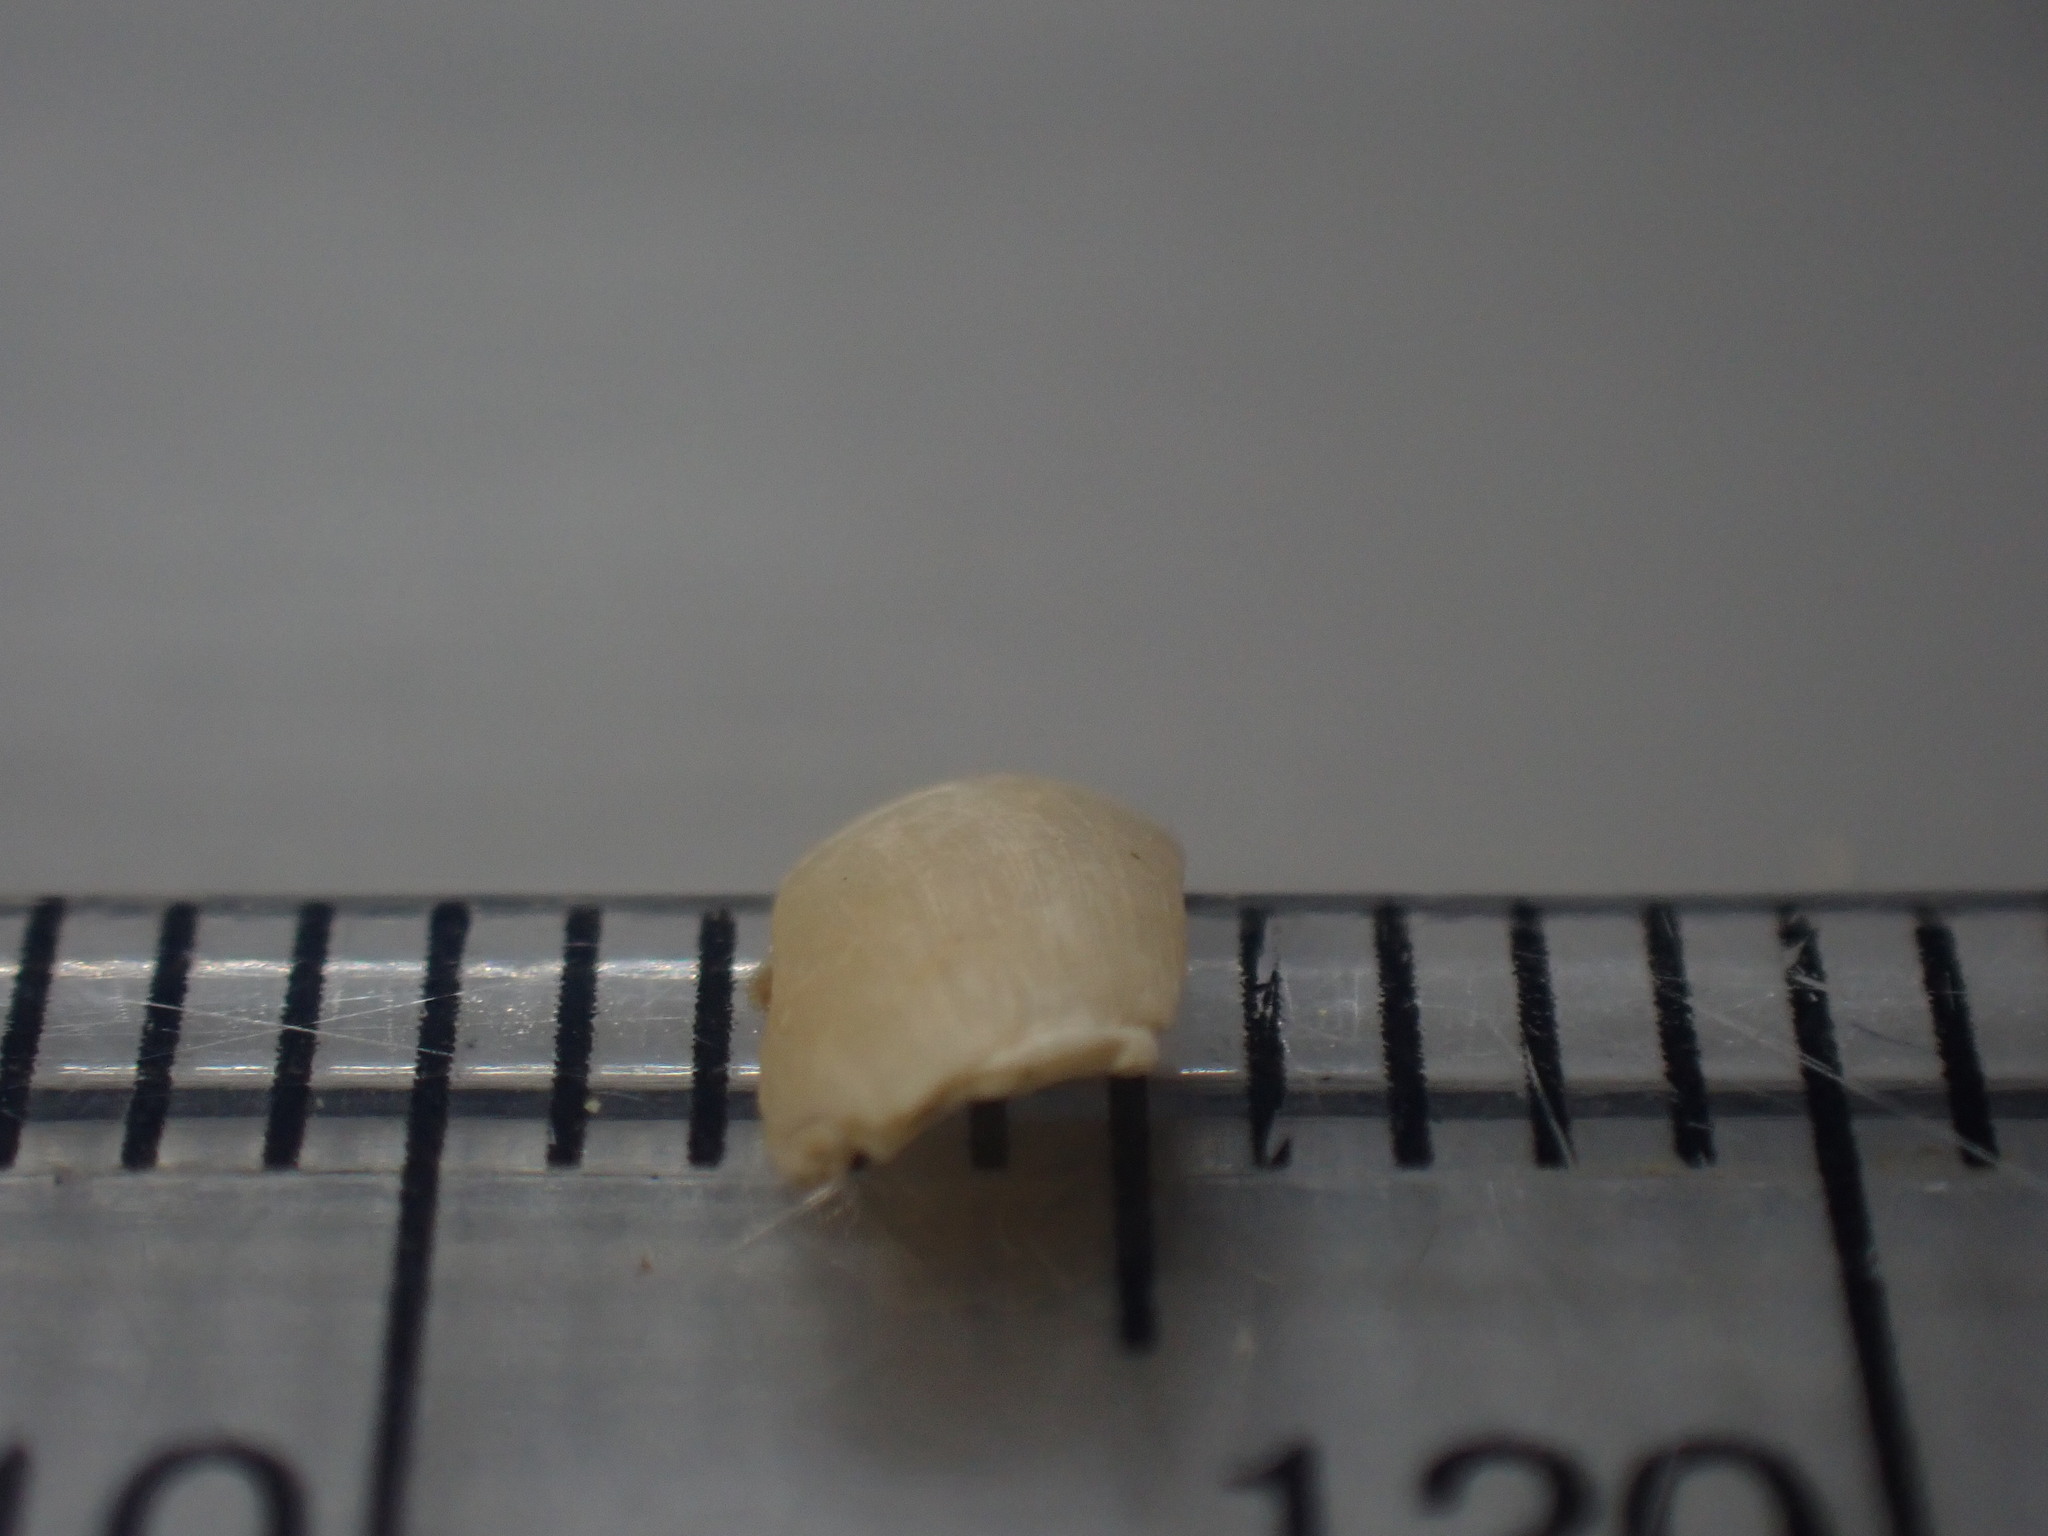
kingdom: Animalia
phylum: Mollusca
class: Gastropoda
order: Neogastropoda
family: Ancillariidae
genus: Amalda
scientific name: Amalda novaezelandiae
